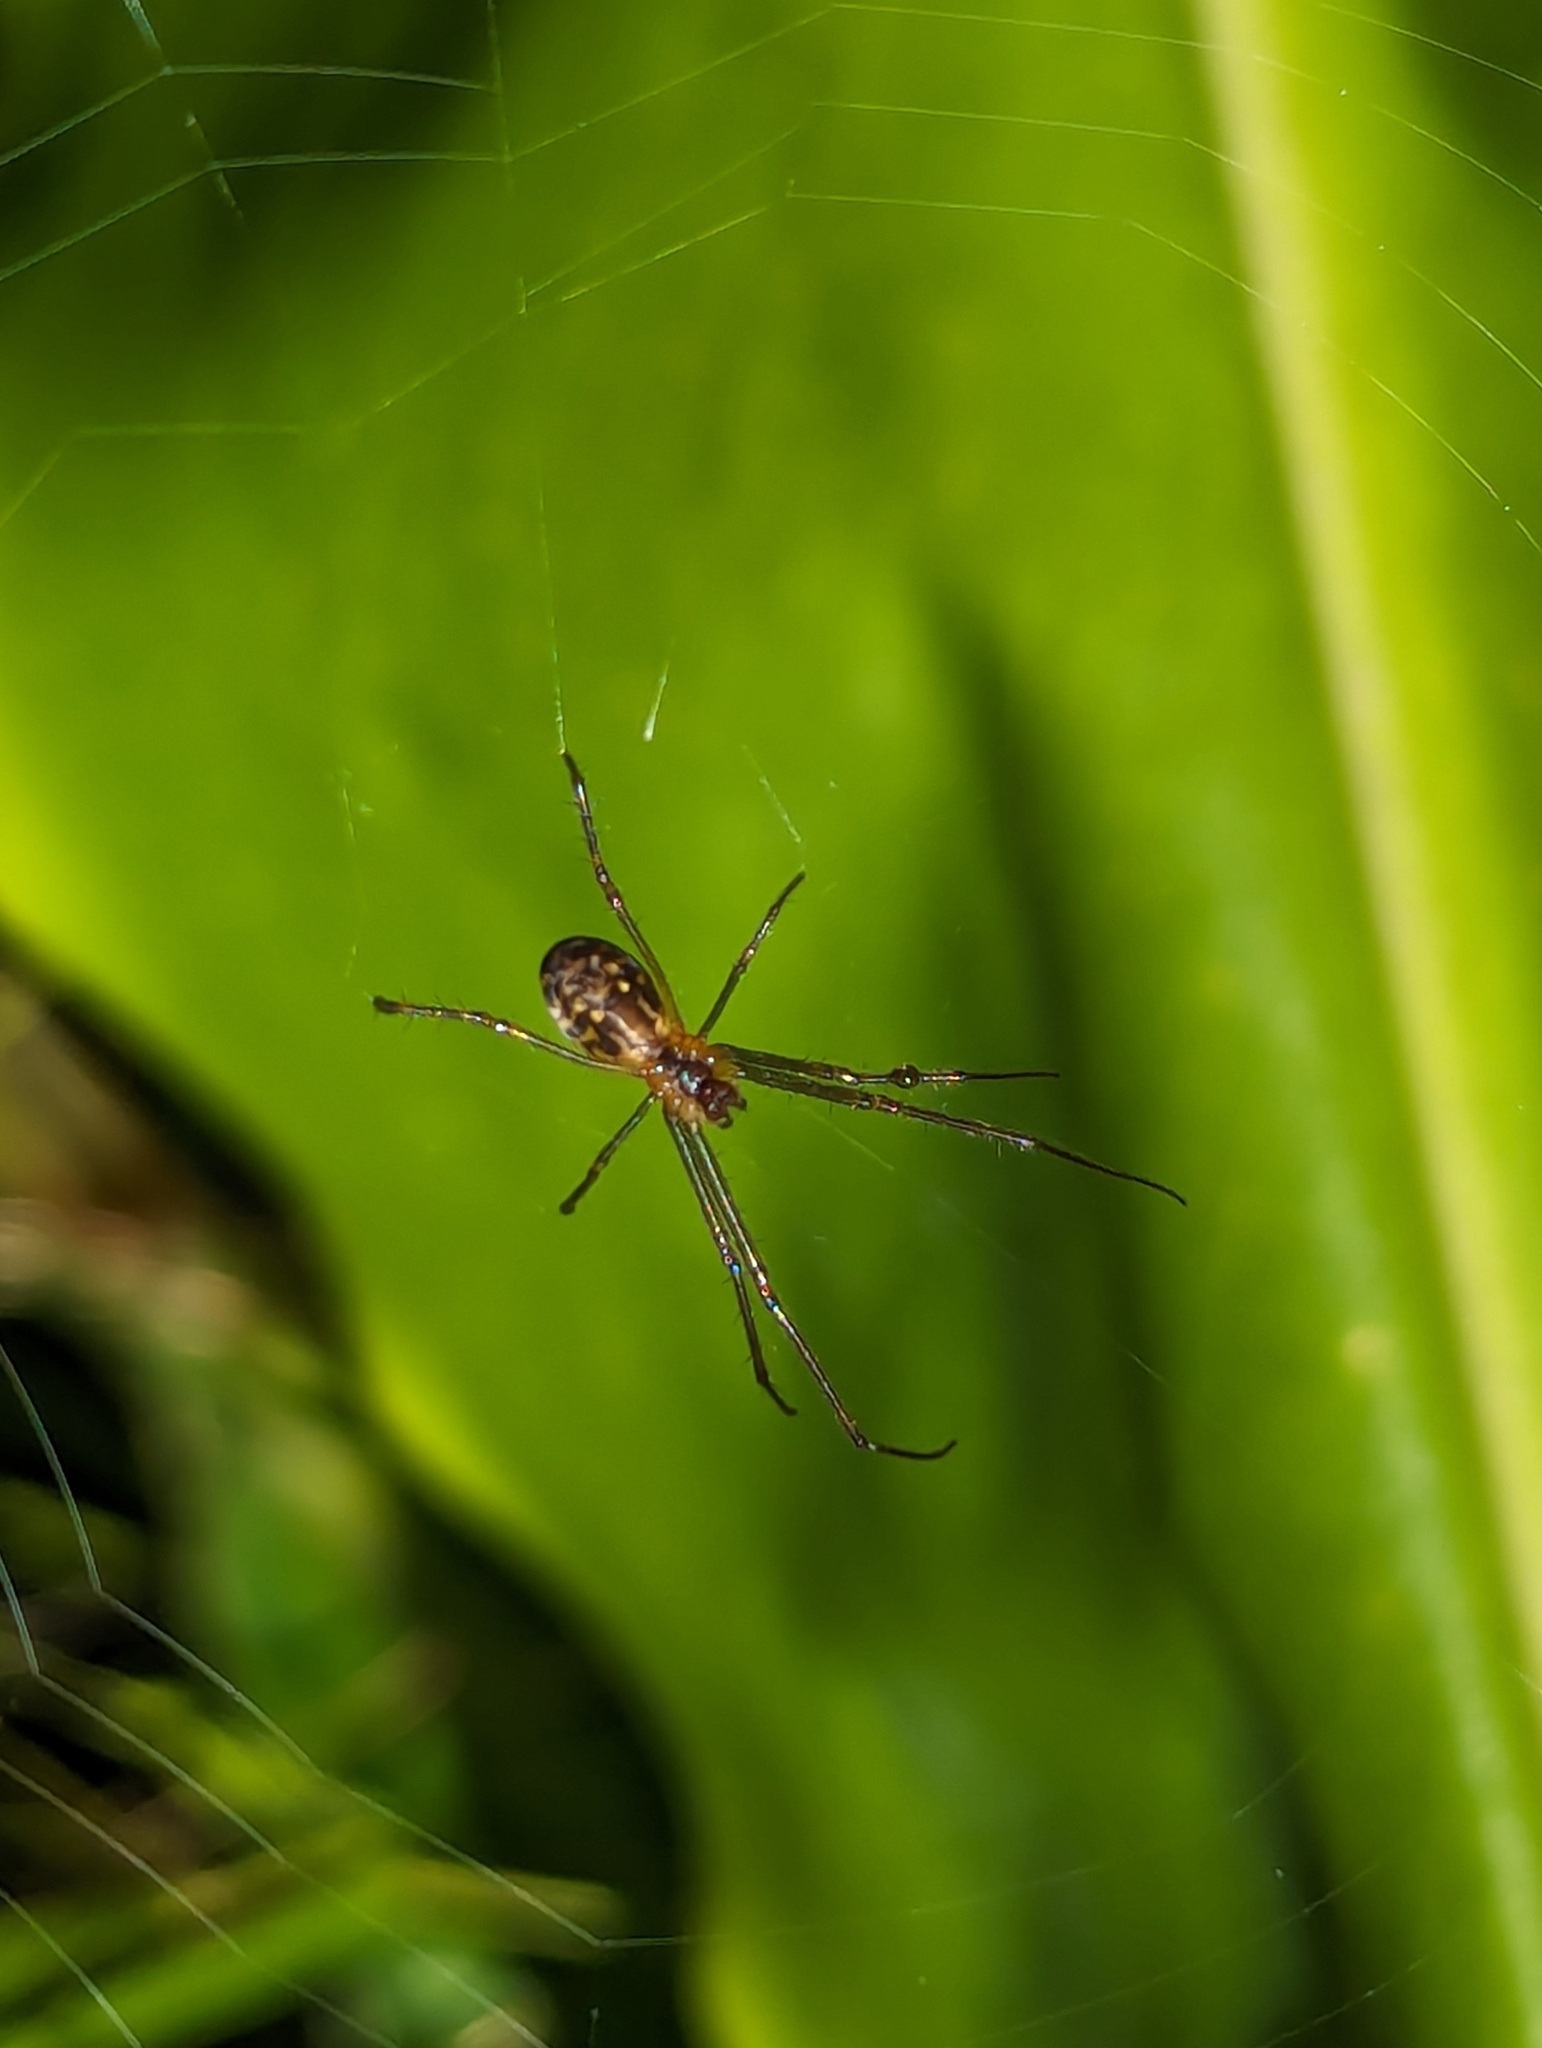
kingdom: Animalia
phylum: Arthropoda
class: Arachnida
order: Araneae
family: Tetragnathidae
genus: Leucauge
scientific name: Leucauge dromedaria
